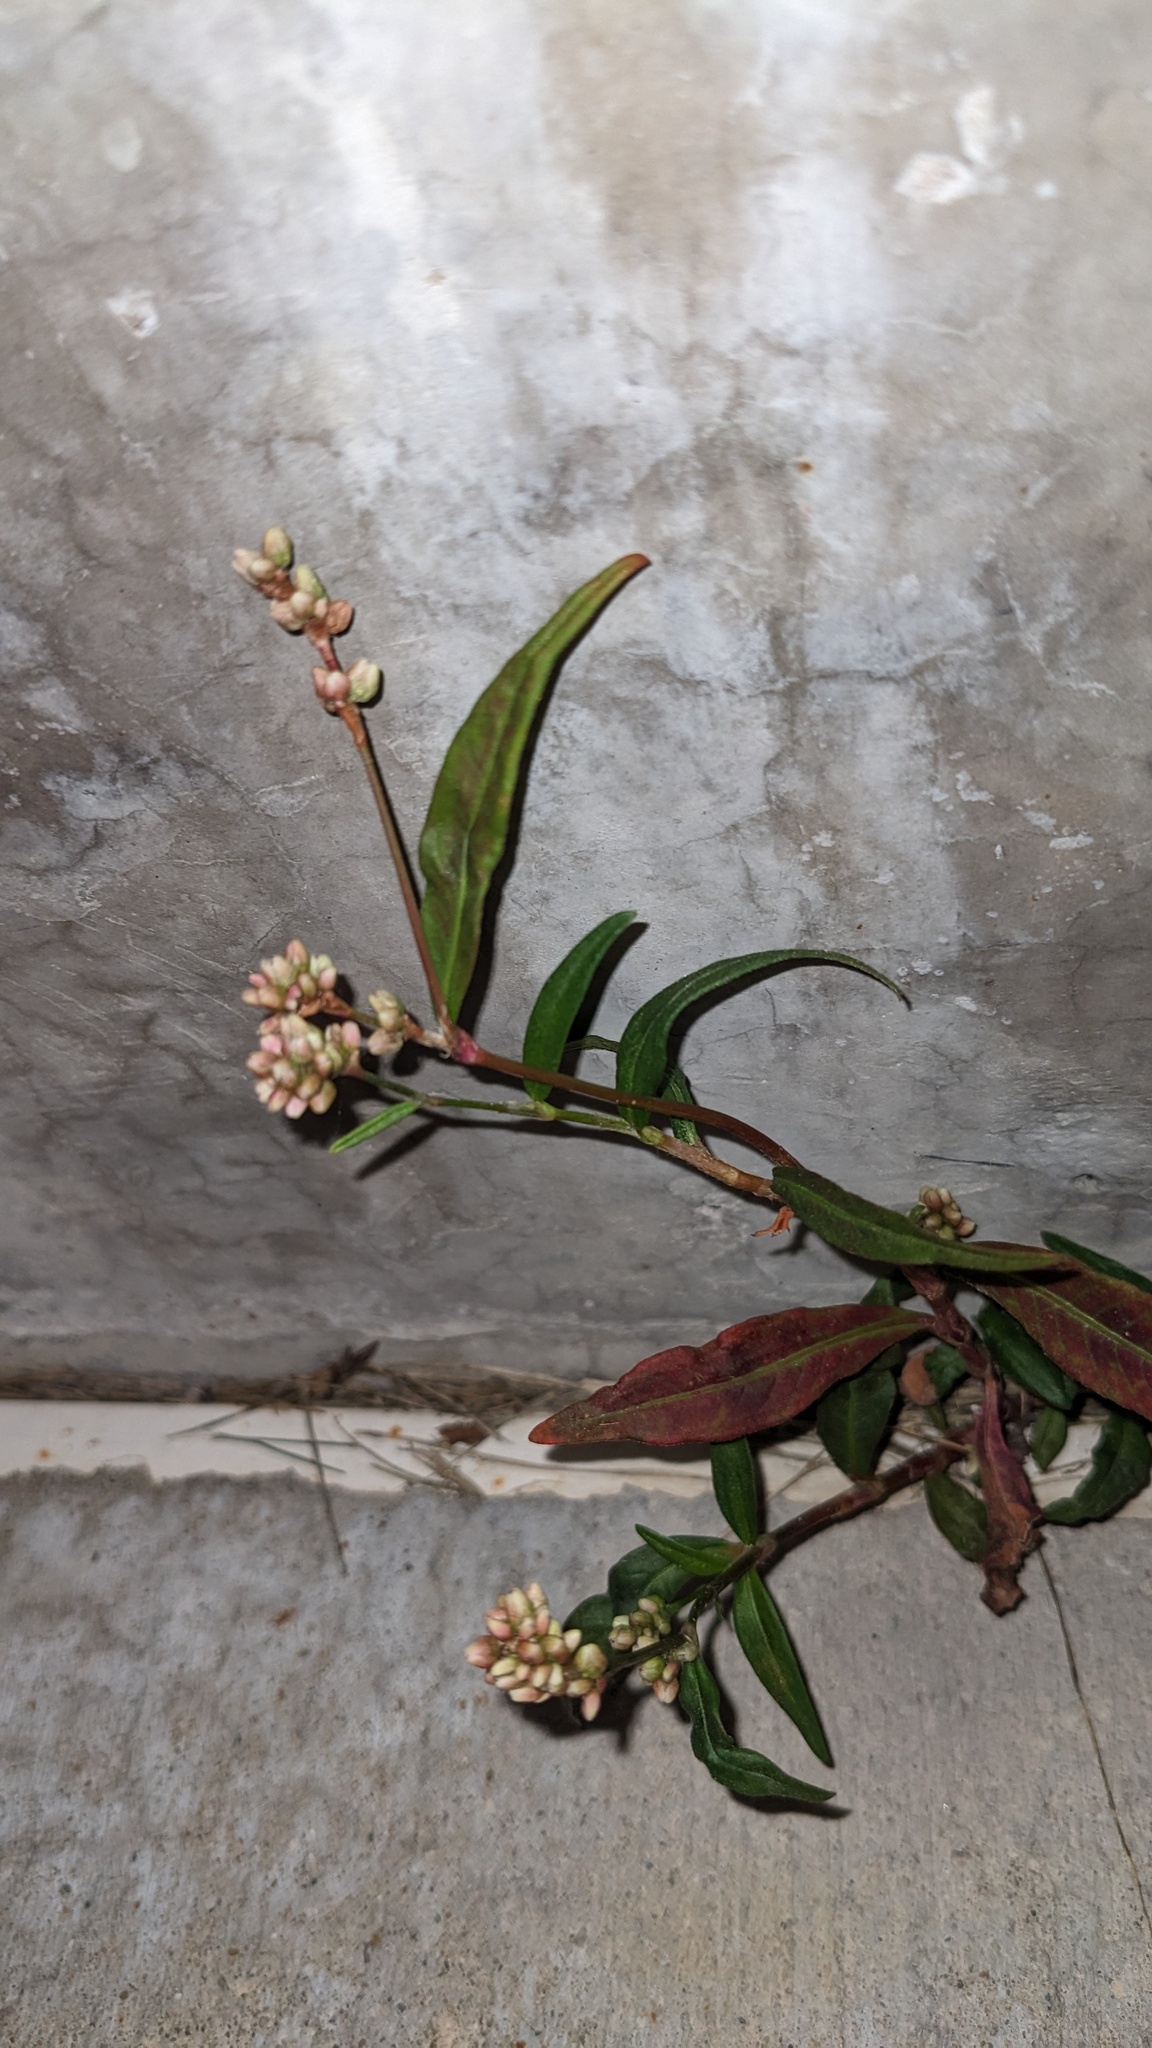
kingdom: Plantae
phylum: Tracheophyta
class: Magnoliopsida
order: Caryophyllales
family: Polygonaceae
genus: Persicaria
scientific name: Persicaria maculosa
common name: Redshank
